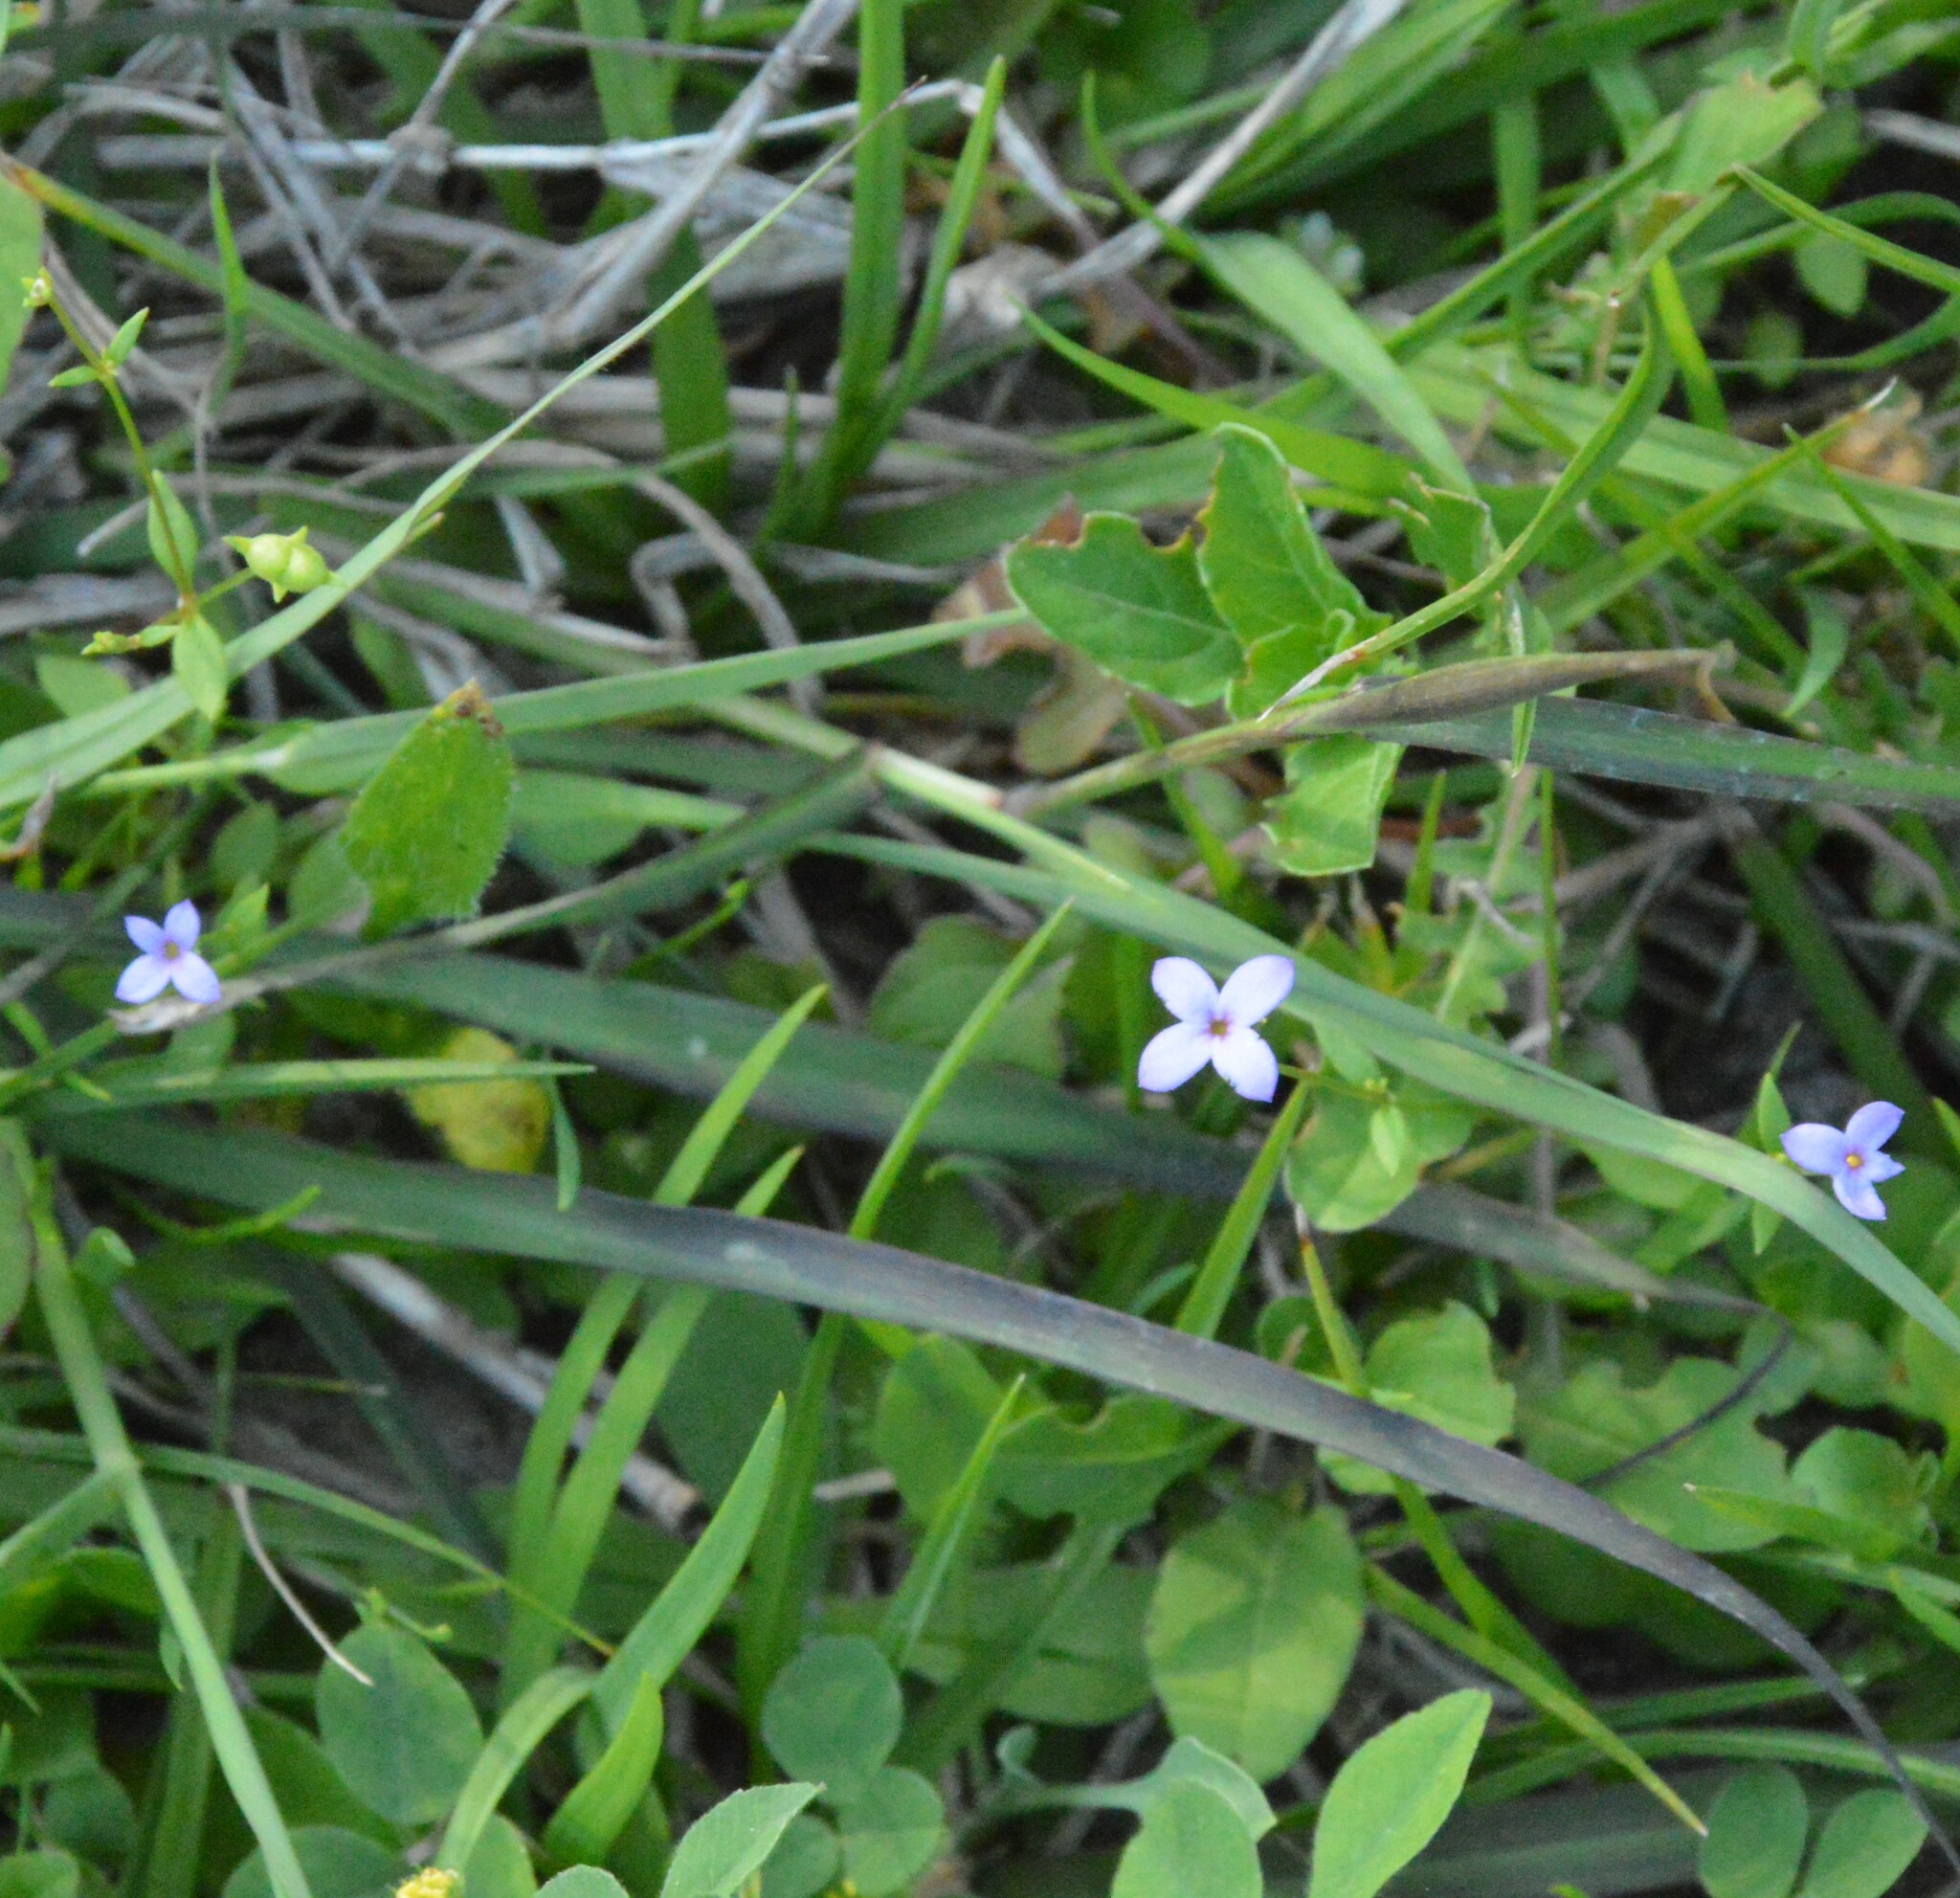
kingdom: Plantae
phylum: Tracheophyta
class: Magnoliopsida
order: Gentianales
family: Rubiaceae
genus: Houstonia
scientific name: Houstonia pusilla
